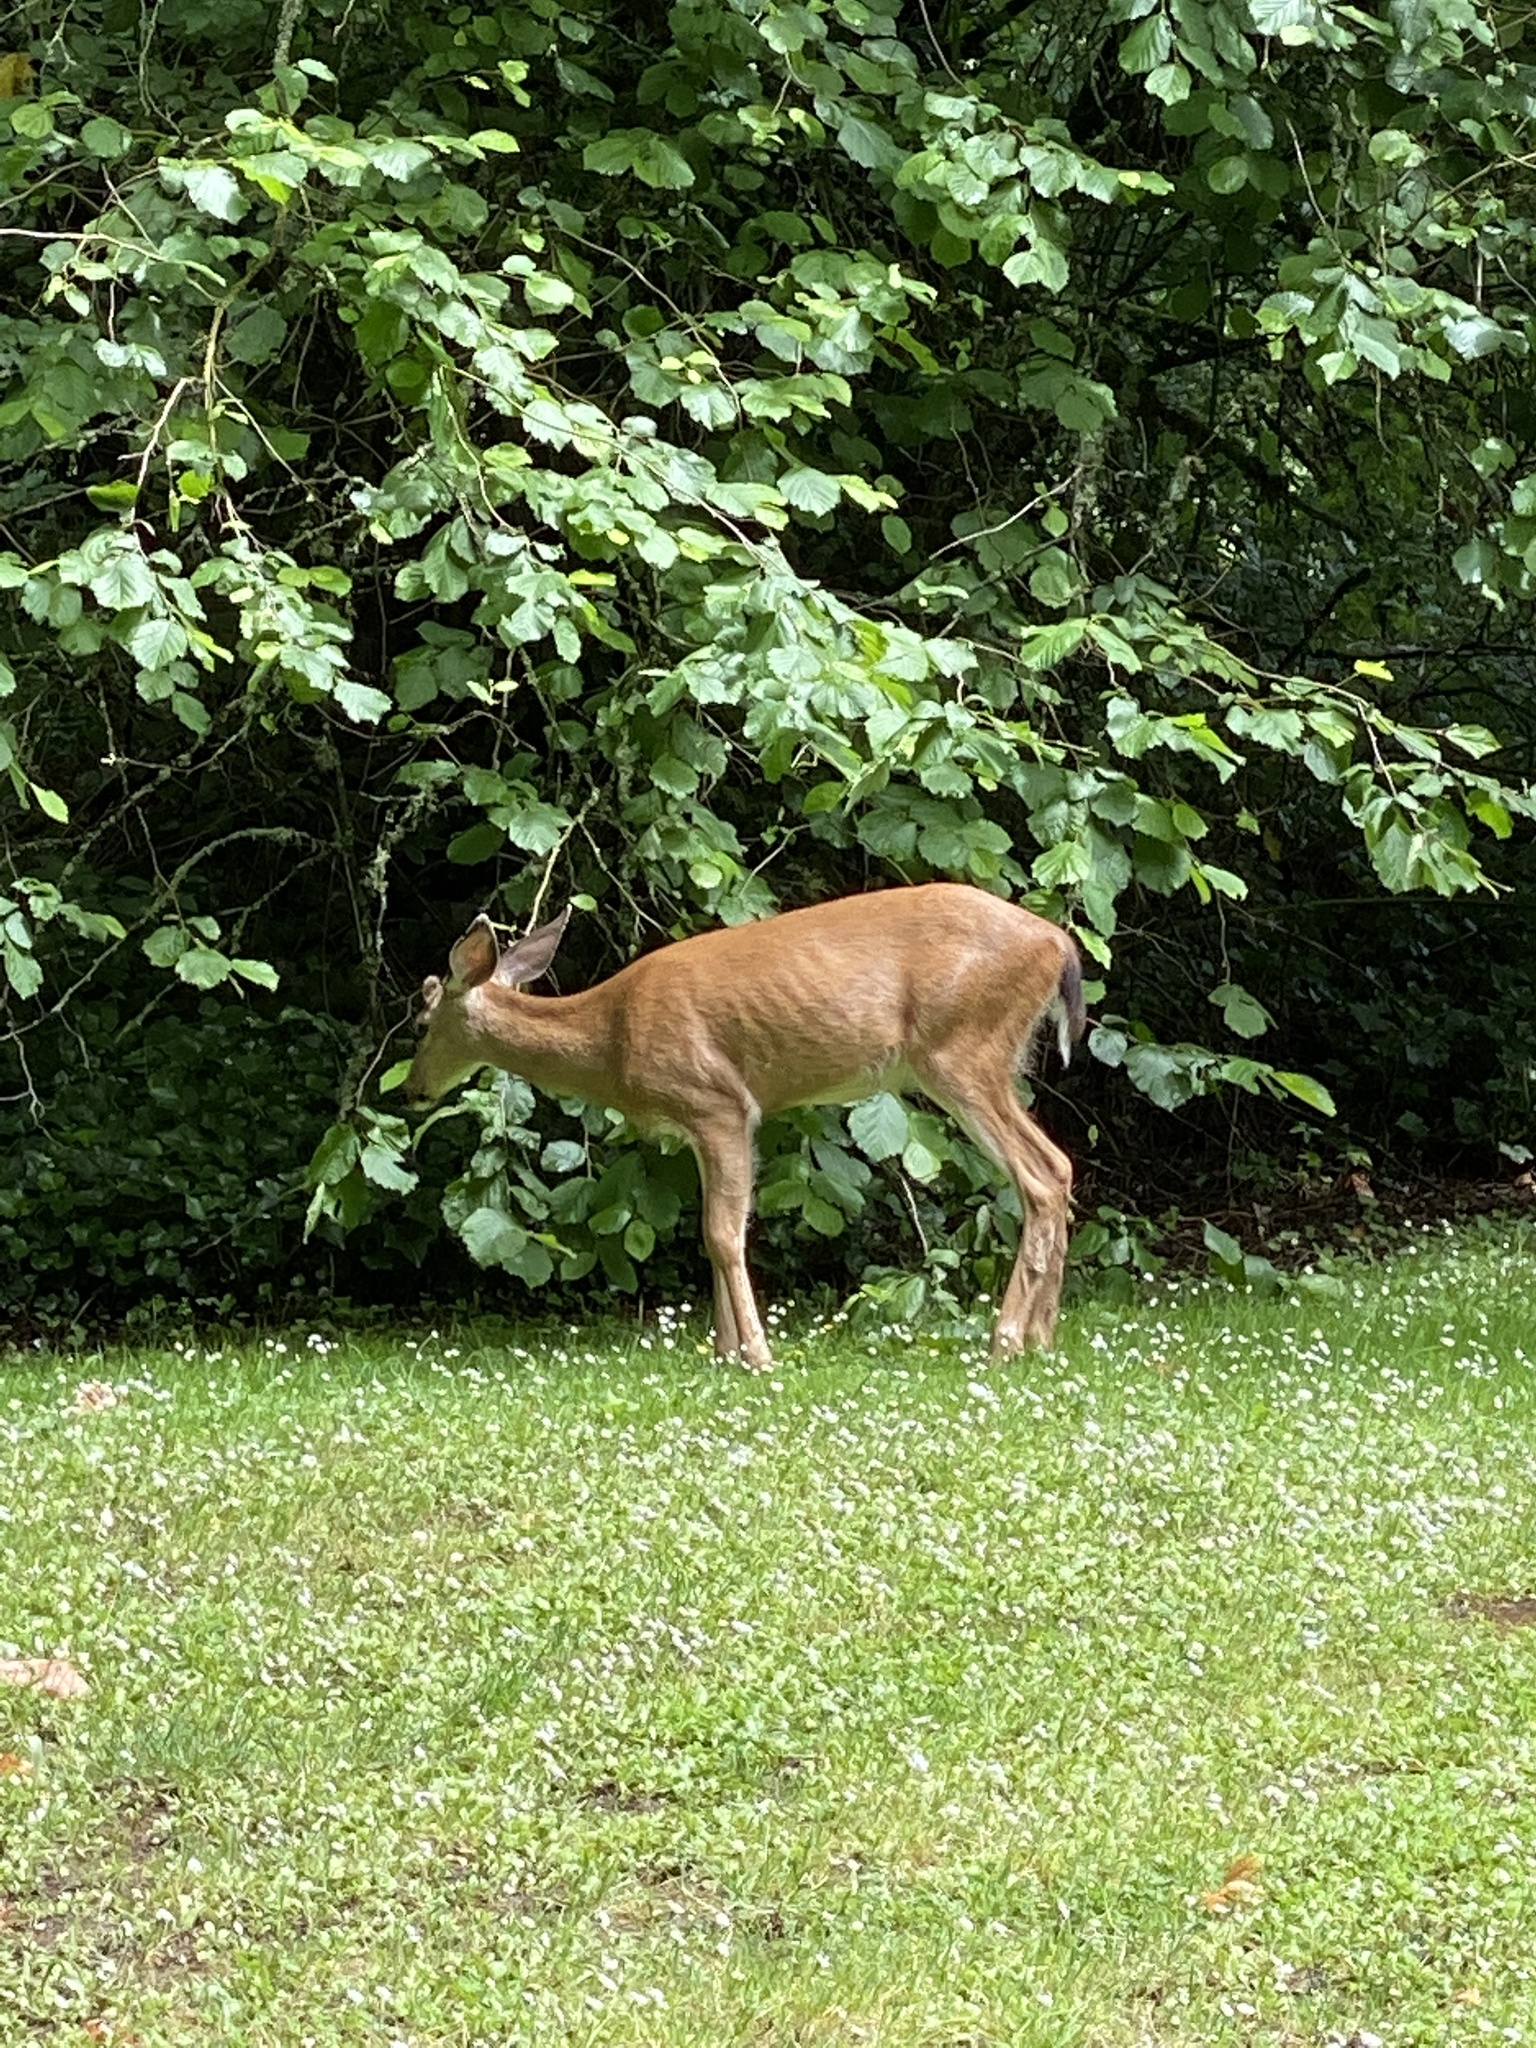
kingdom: Animalia
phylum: Chordata
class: Mammalia
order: Artiodactyla
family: Cervidae
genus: Odocoileus
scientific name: Odocoileus hemionus
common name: Mule deer
